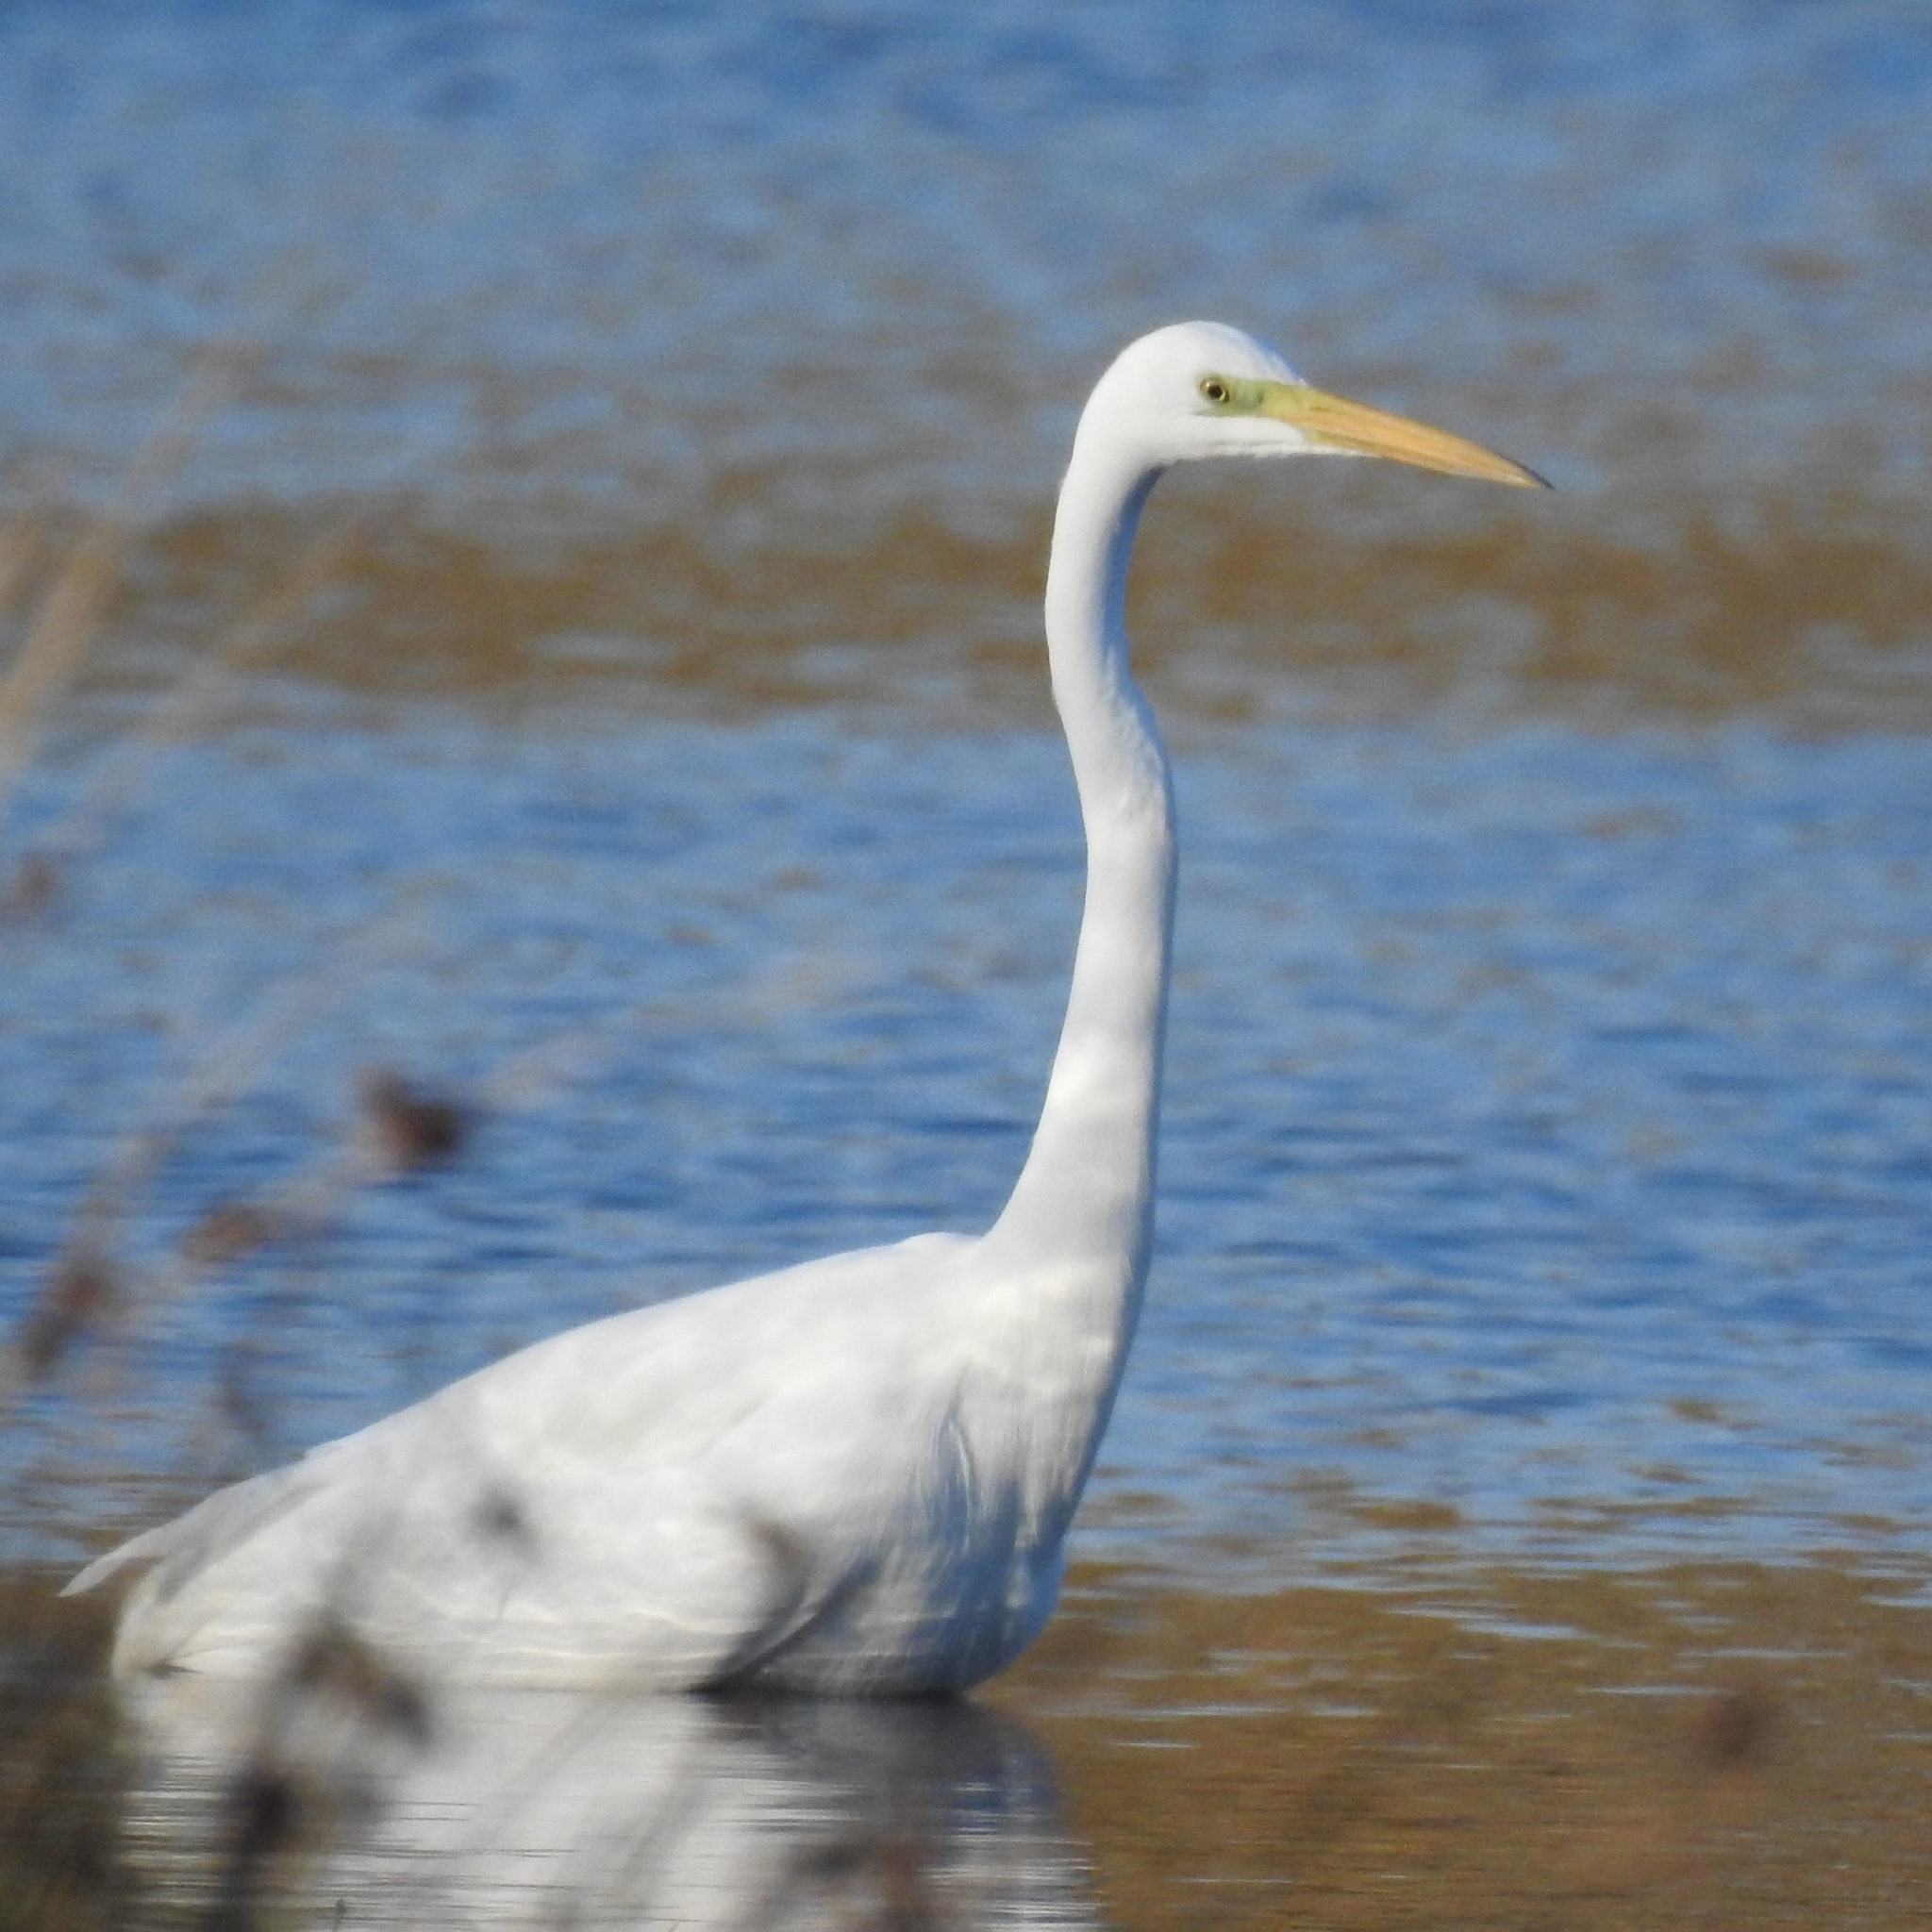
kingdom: Animalia
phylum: Chordata
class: Aves
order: Pelecaniformes
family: Ardeidae
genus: Ardea
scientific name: Ardea alba
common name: Great egret
